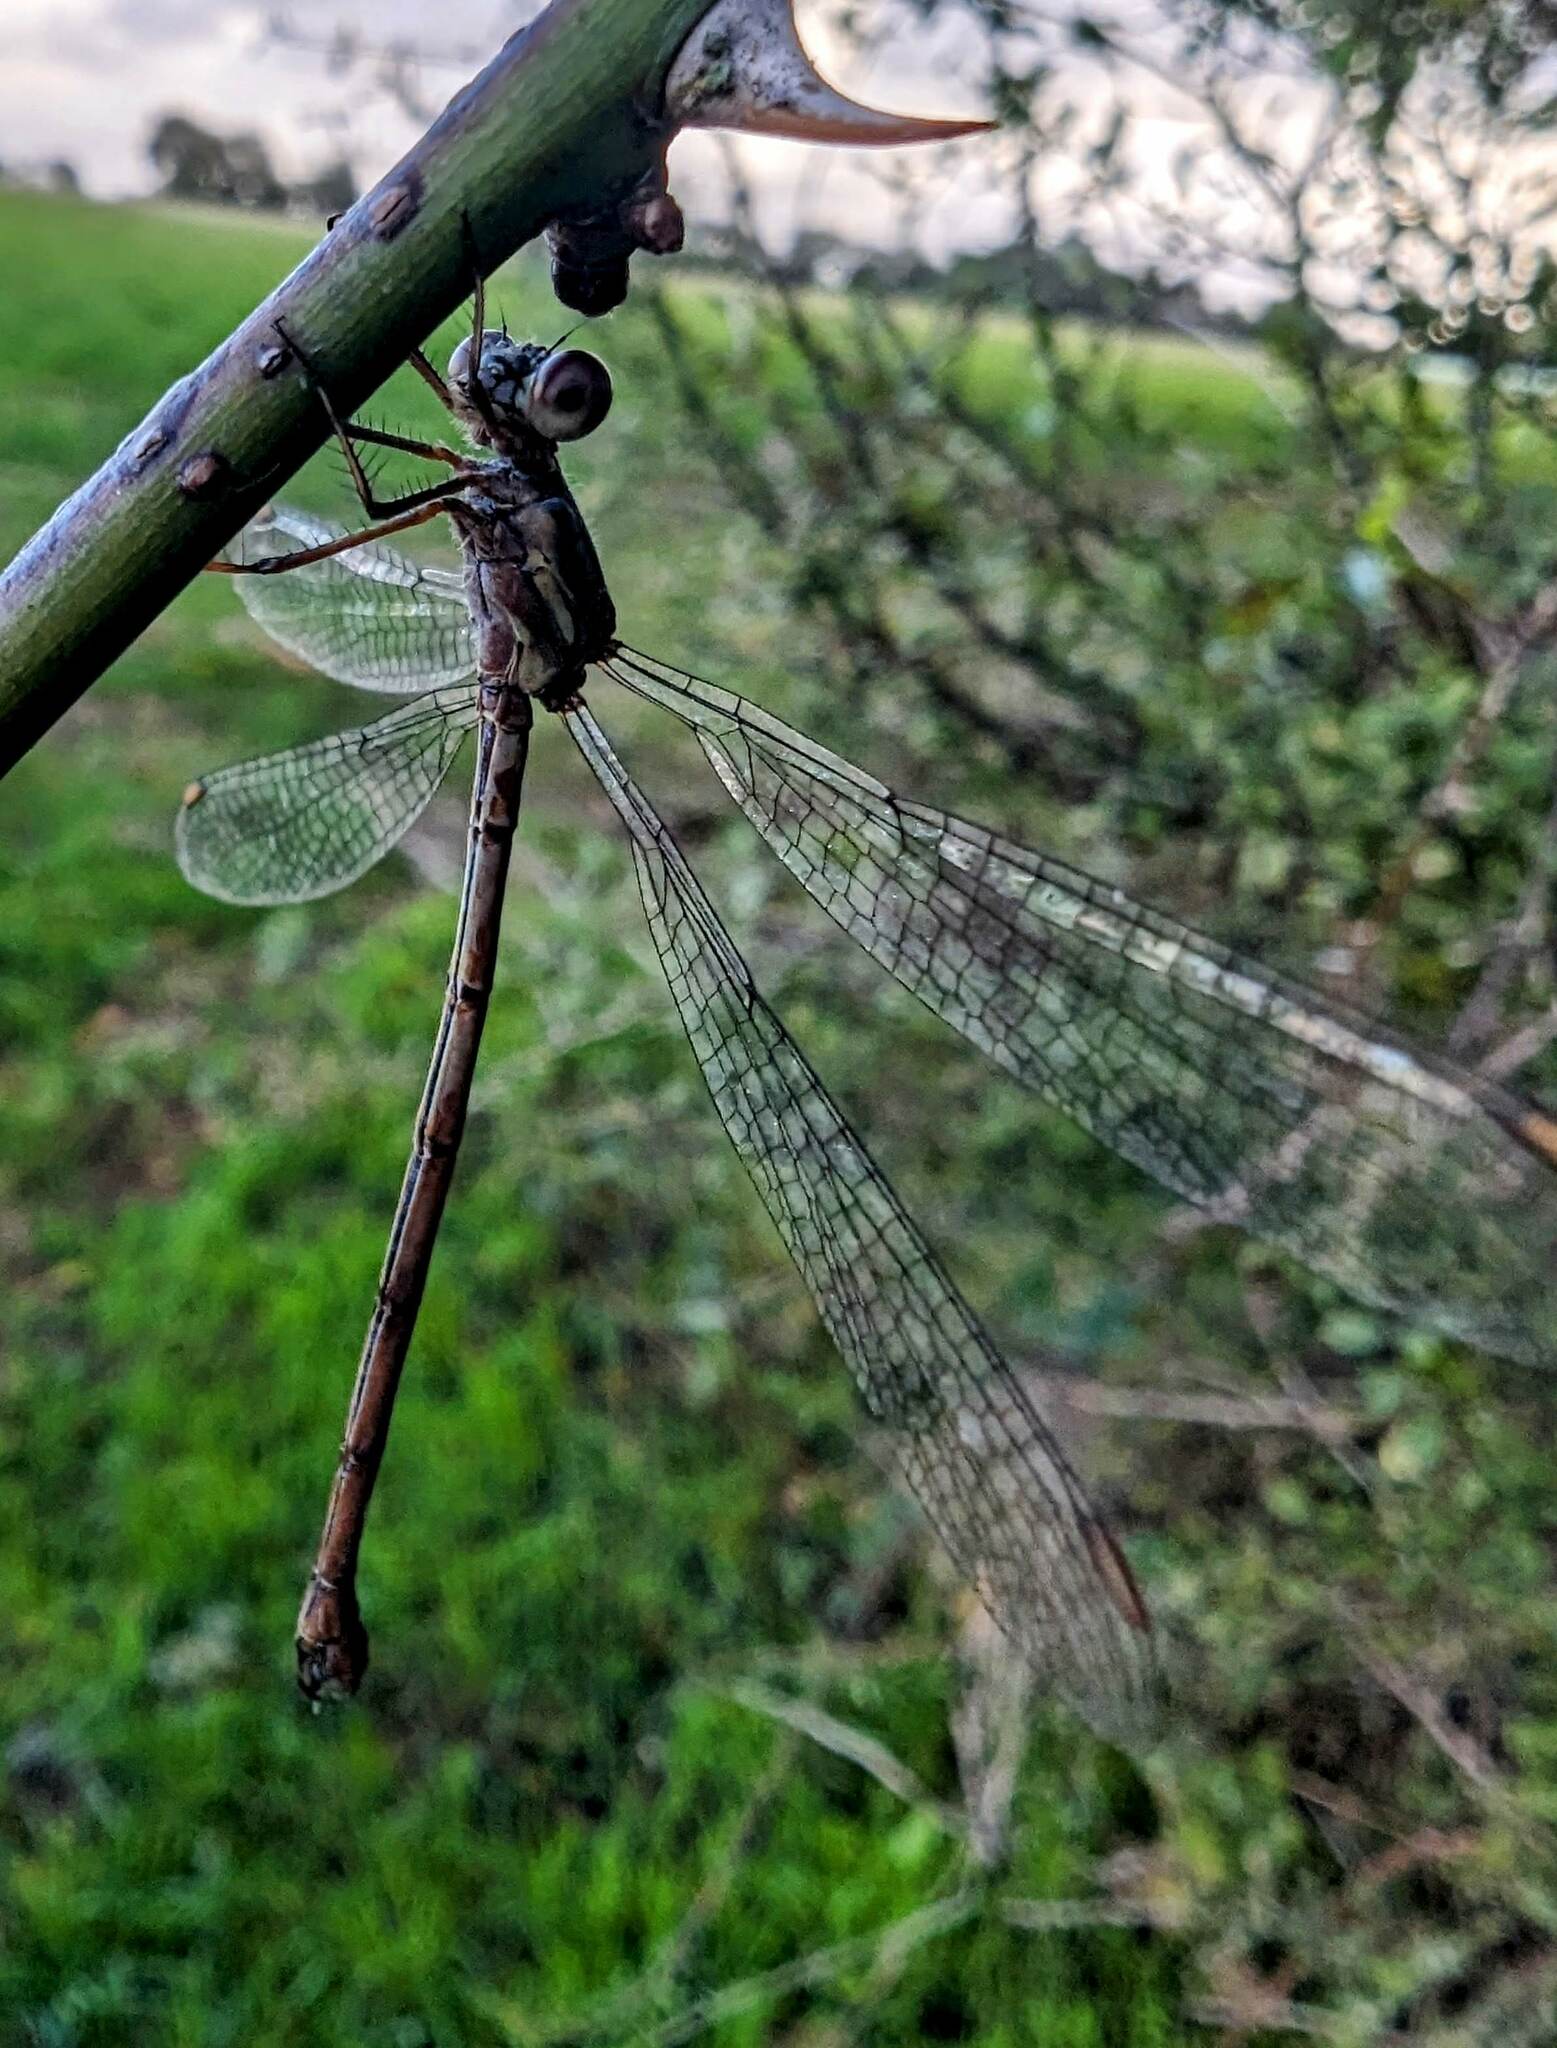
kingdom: Animalia
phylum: Arthropoda
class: Insecta
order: Odonata
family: Lestidae
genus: Chalcolestes
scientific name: Chalcolestes viridis
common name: Green emerald damselfly
